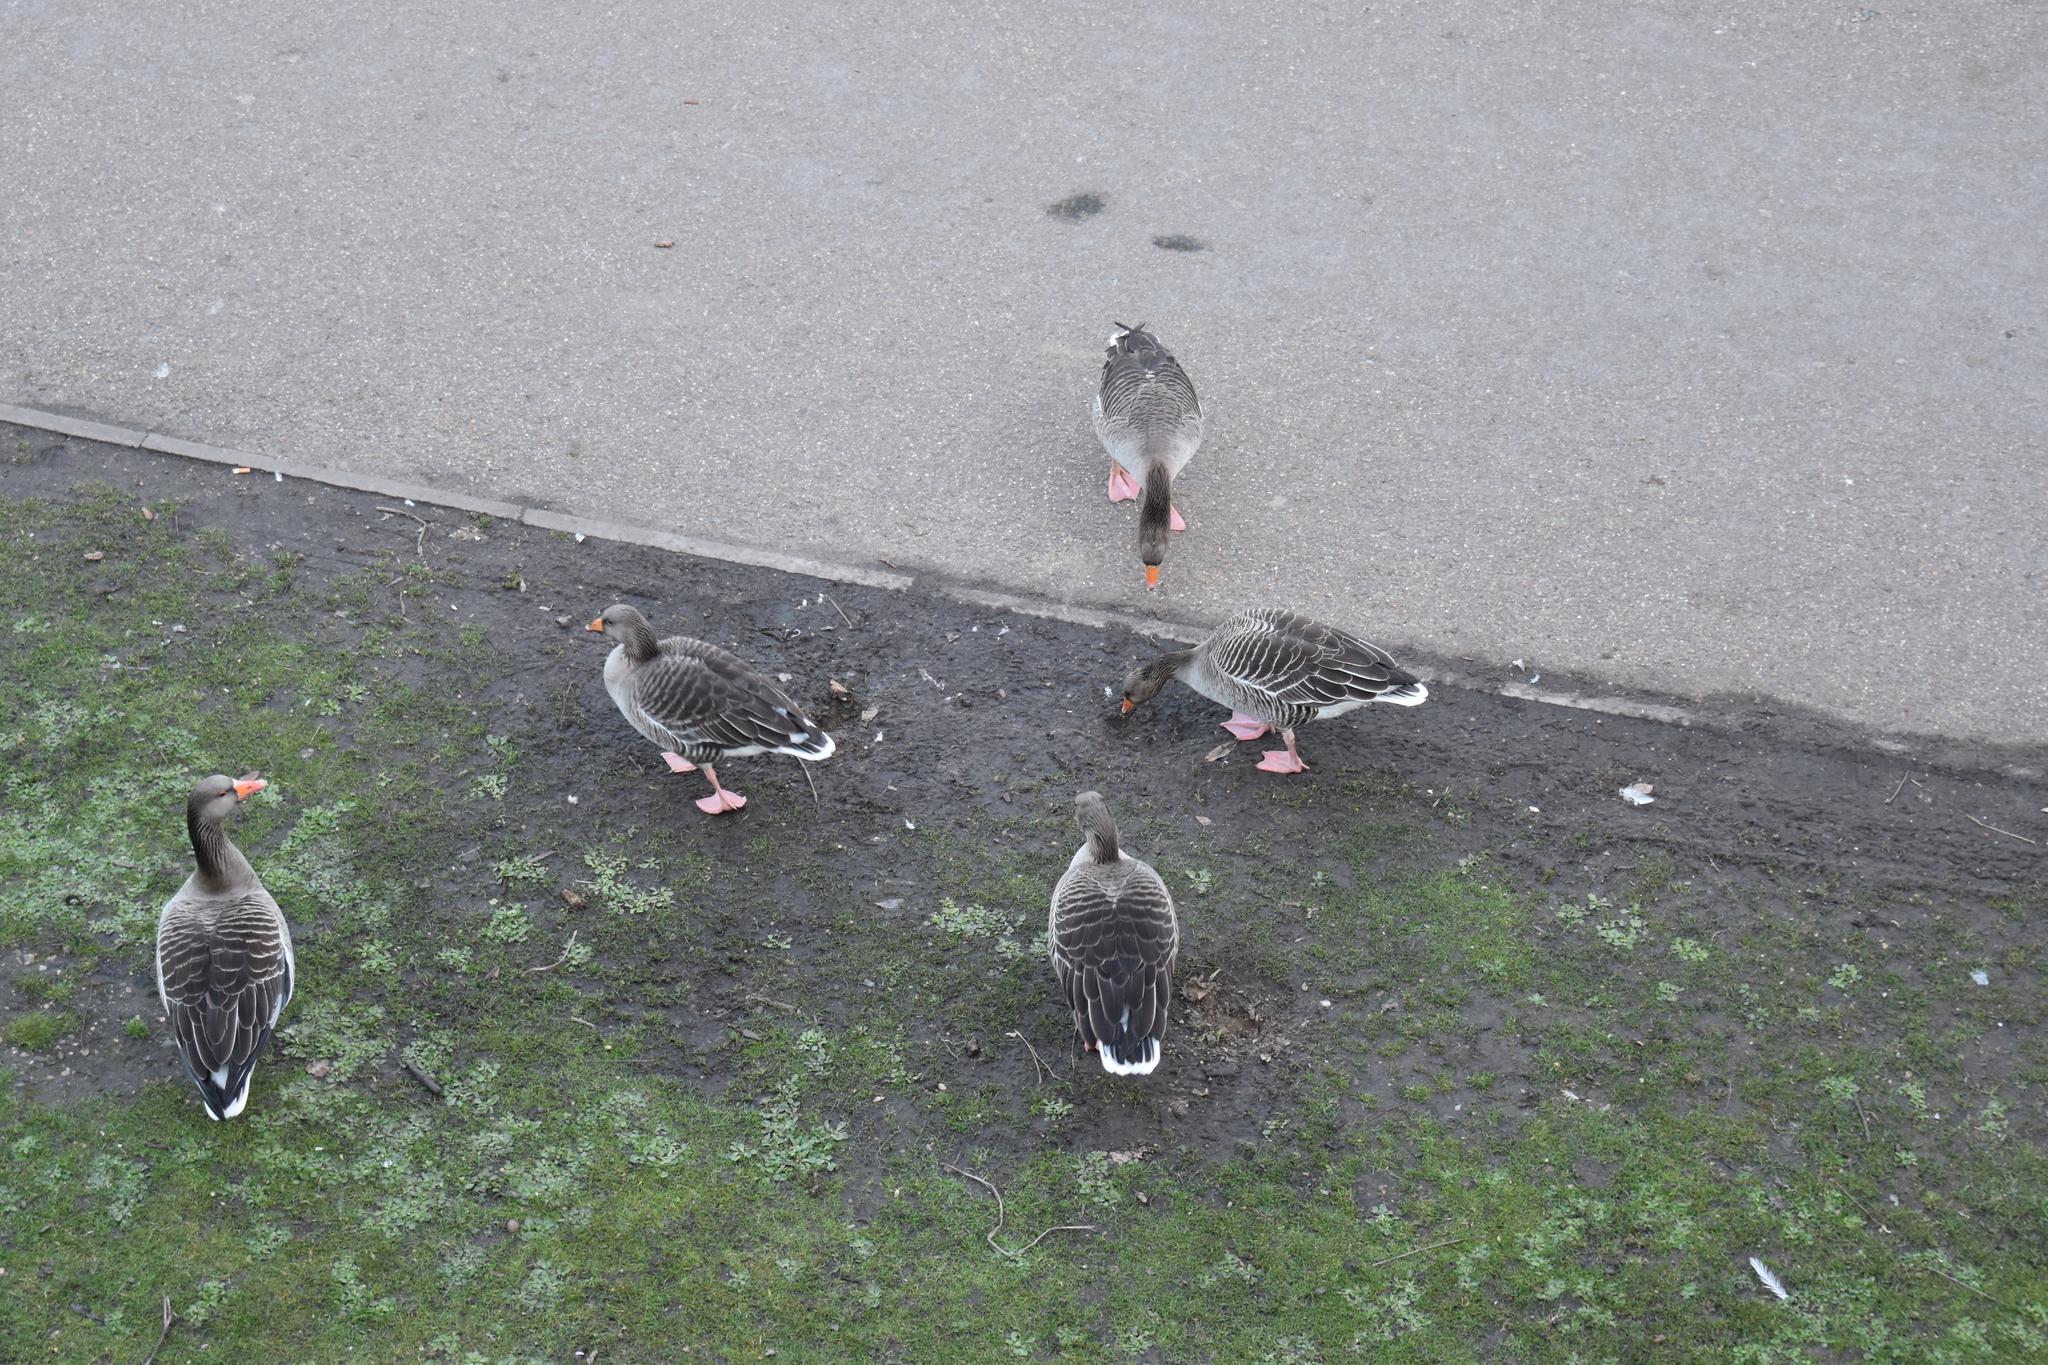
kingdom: Animalia
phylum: Chordata
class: Aves
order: Anseriformes
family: Anatidae
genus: Anser
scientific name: Anser anser
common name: Greylag goose
